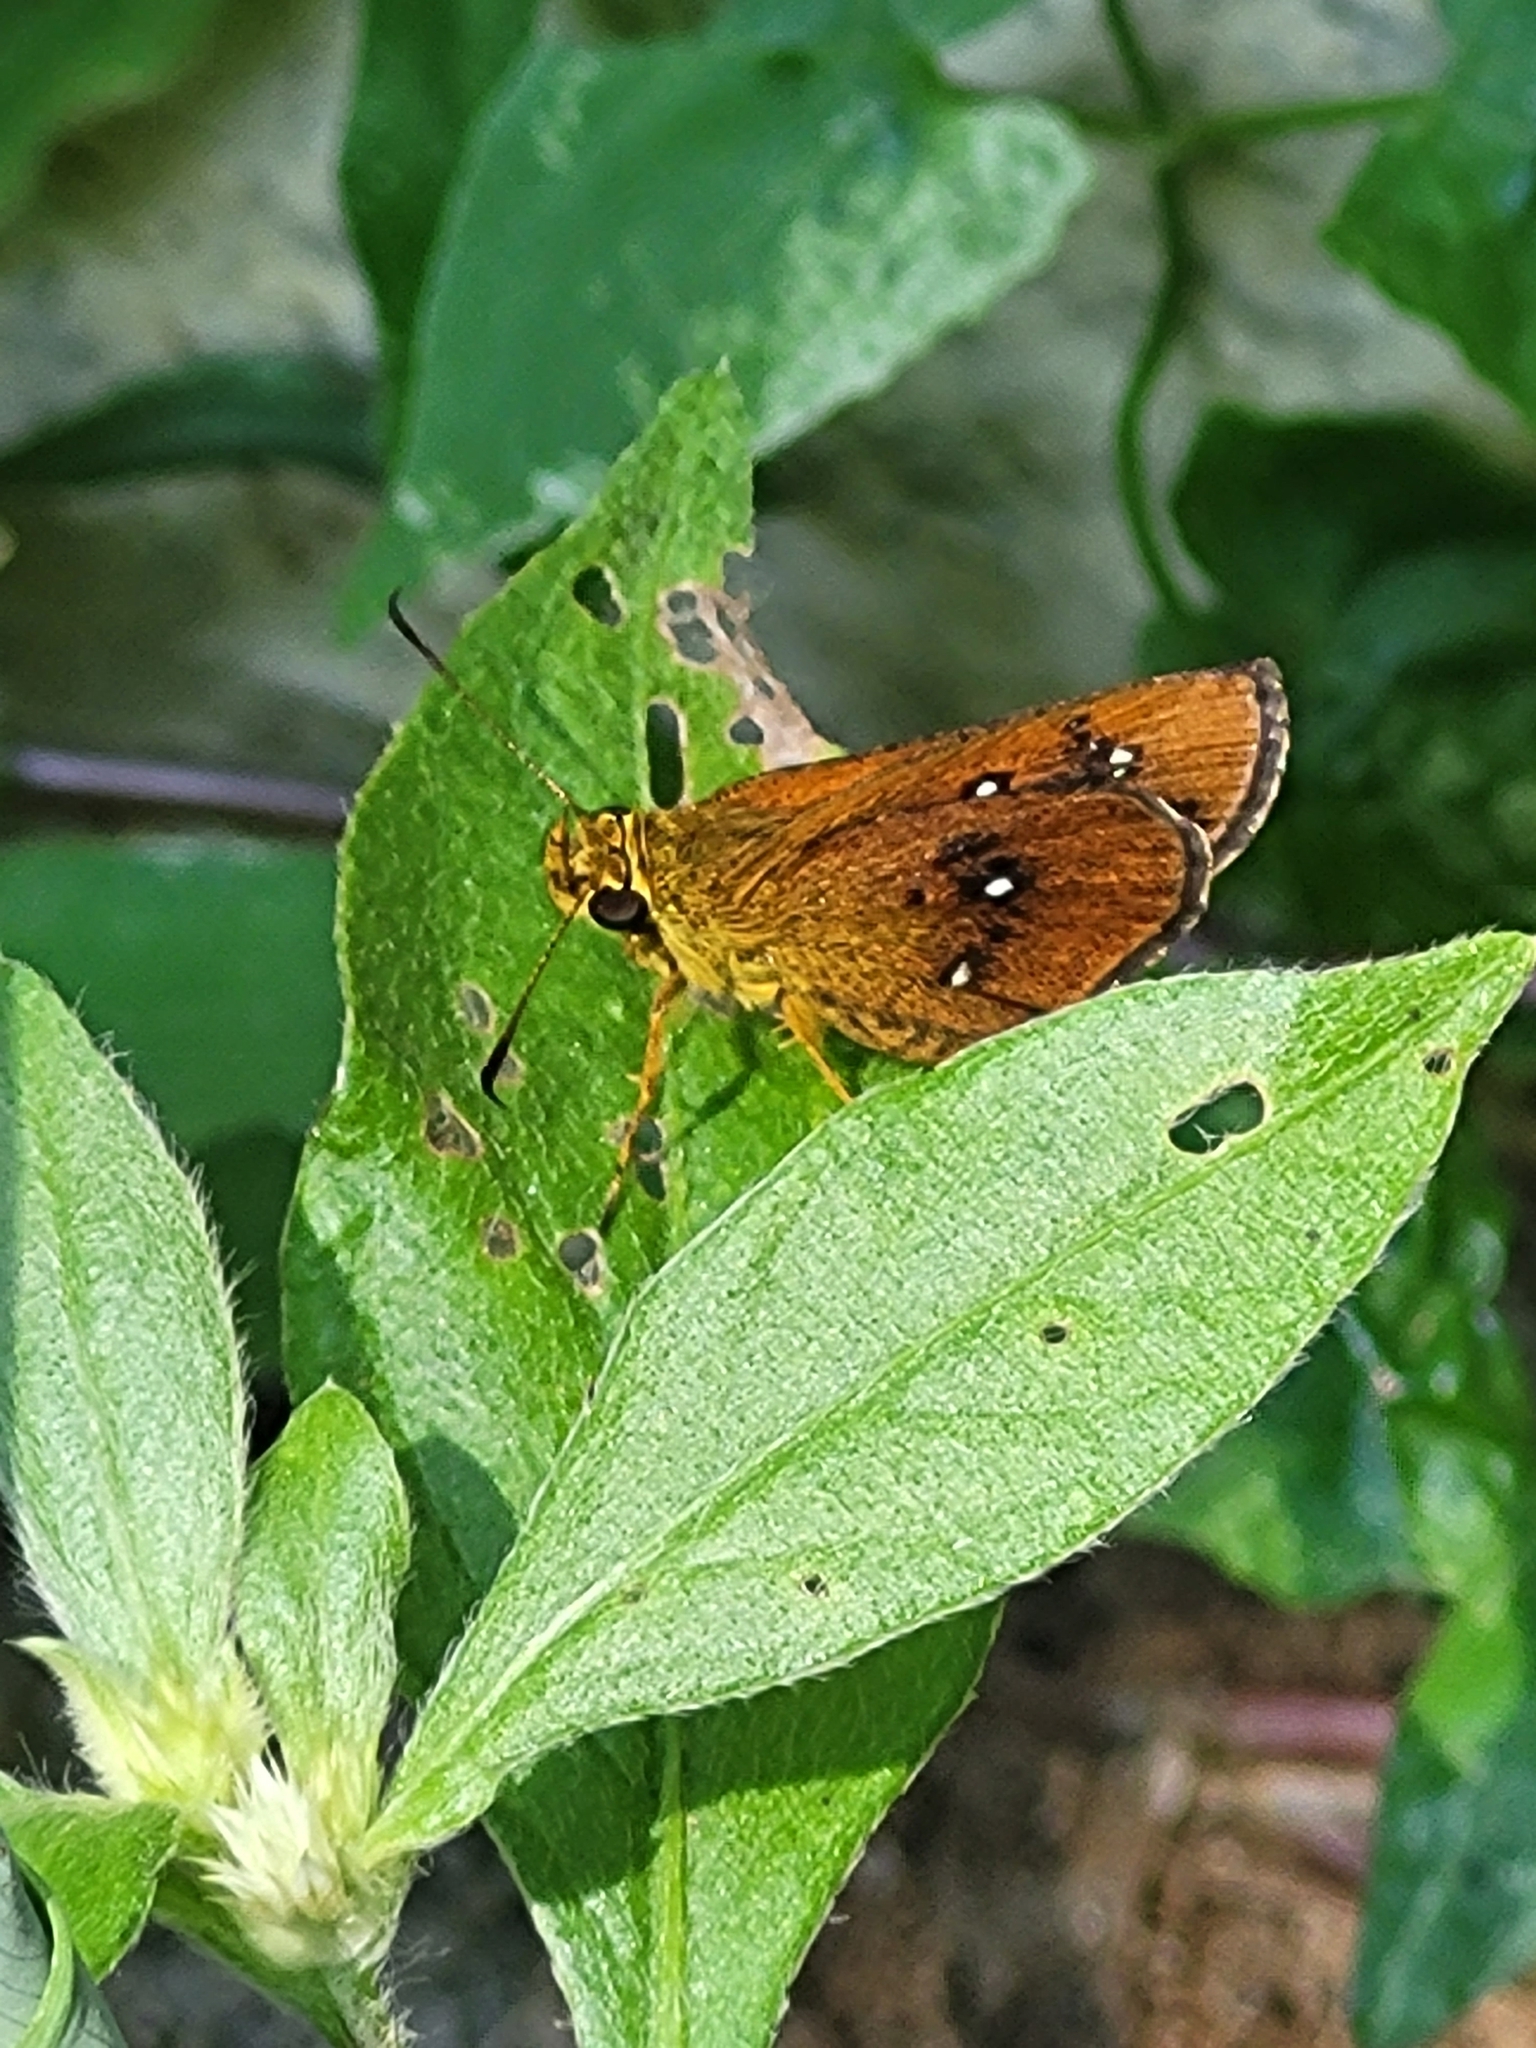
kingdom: Animalia
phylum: Arthropoda
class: Insecta
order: Lepidoptera
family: Hesperiidae
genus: Iambrix
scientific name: Iambrix salsala
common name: Chestnut bob
